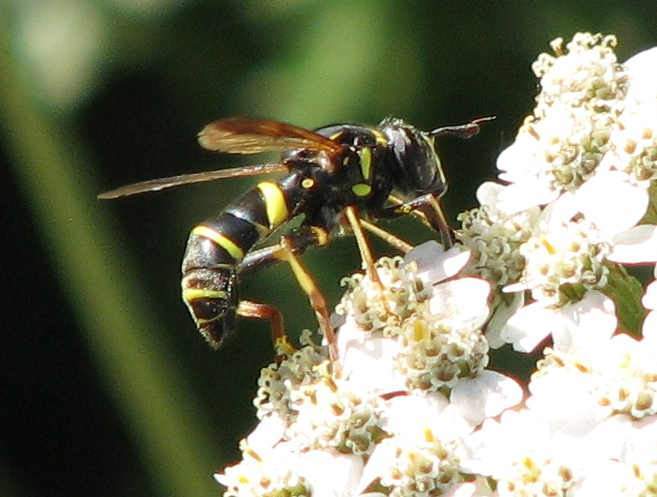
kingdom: Animalia
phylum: Arthropoda
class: Insecta
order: Diptera
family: Syrphidae
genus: Spilomyia
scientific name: Spilomyia sayi
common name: Four-lined hornet fly
